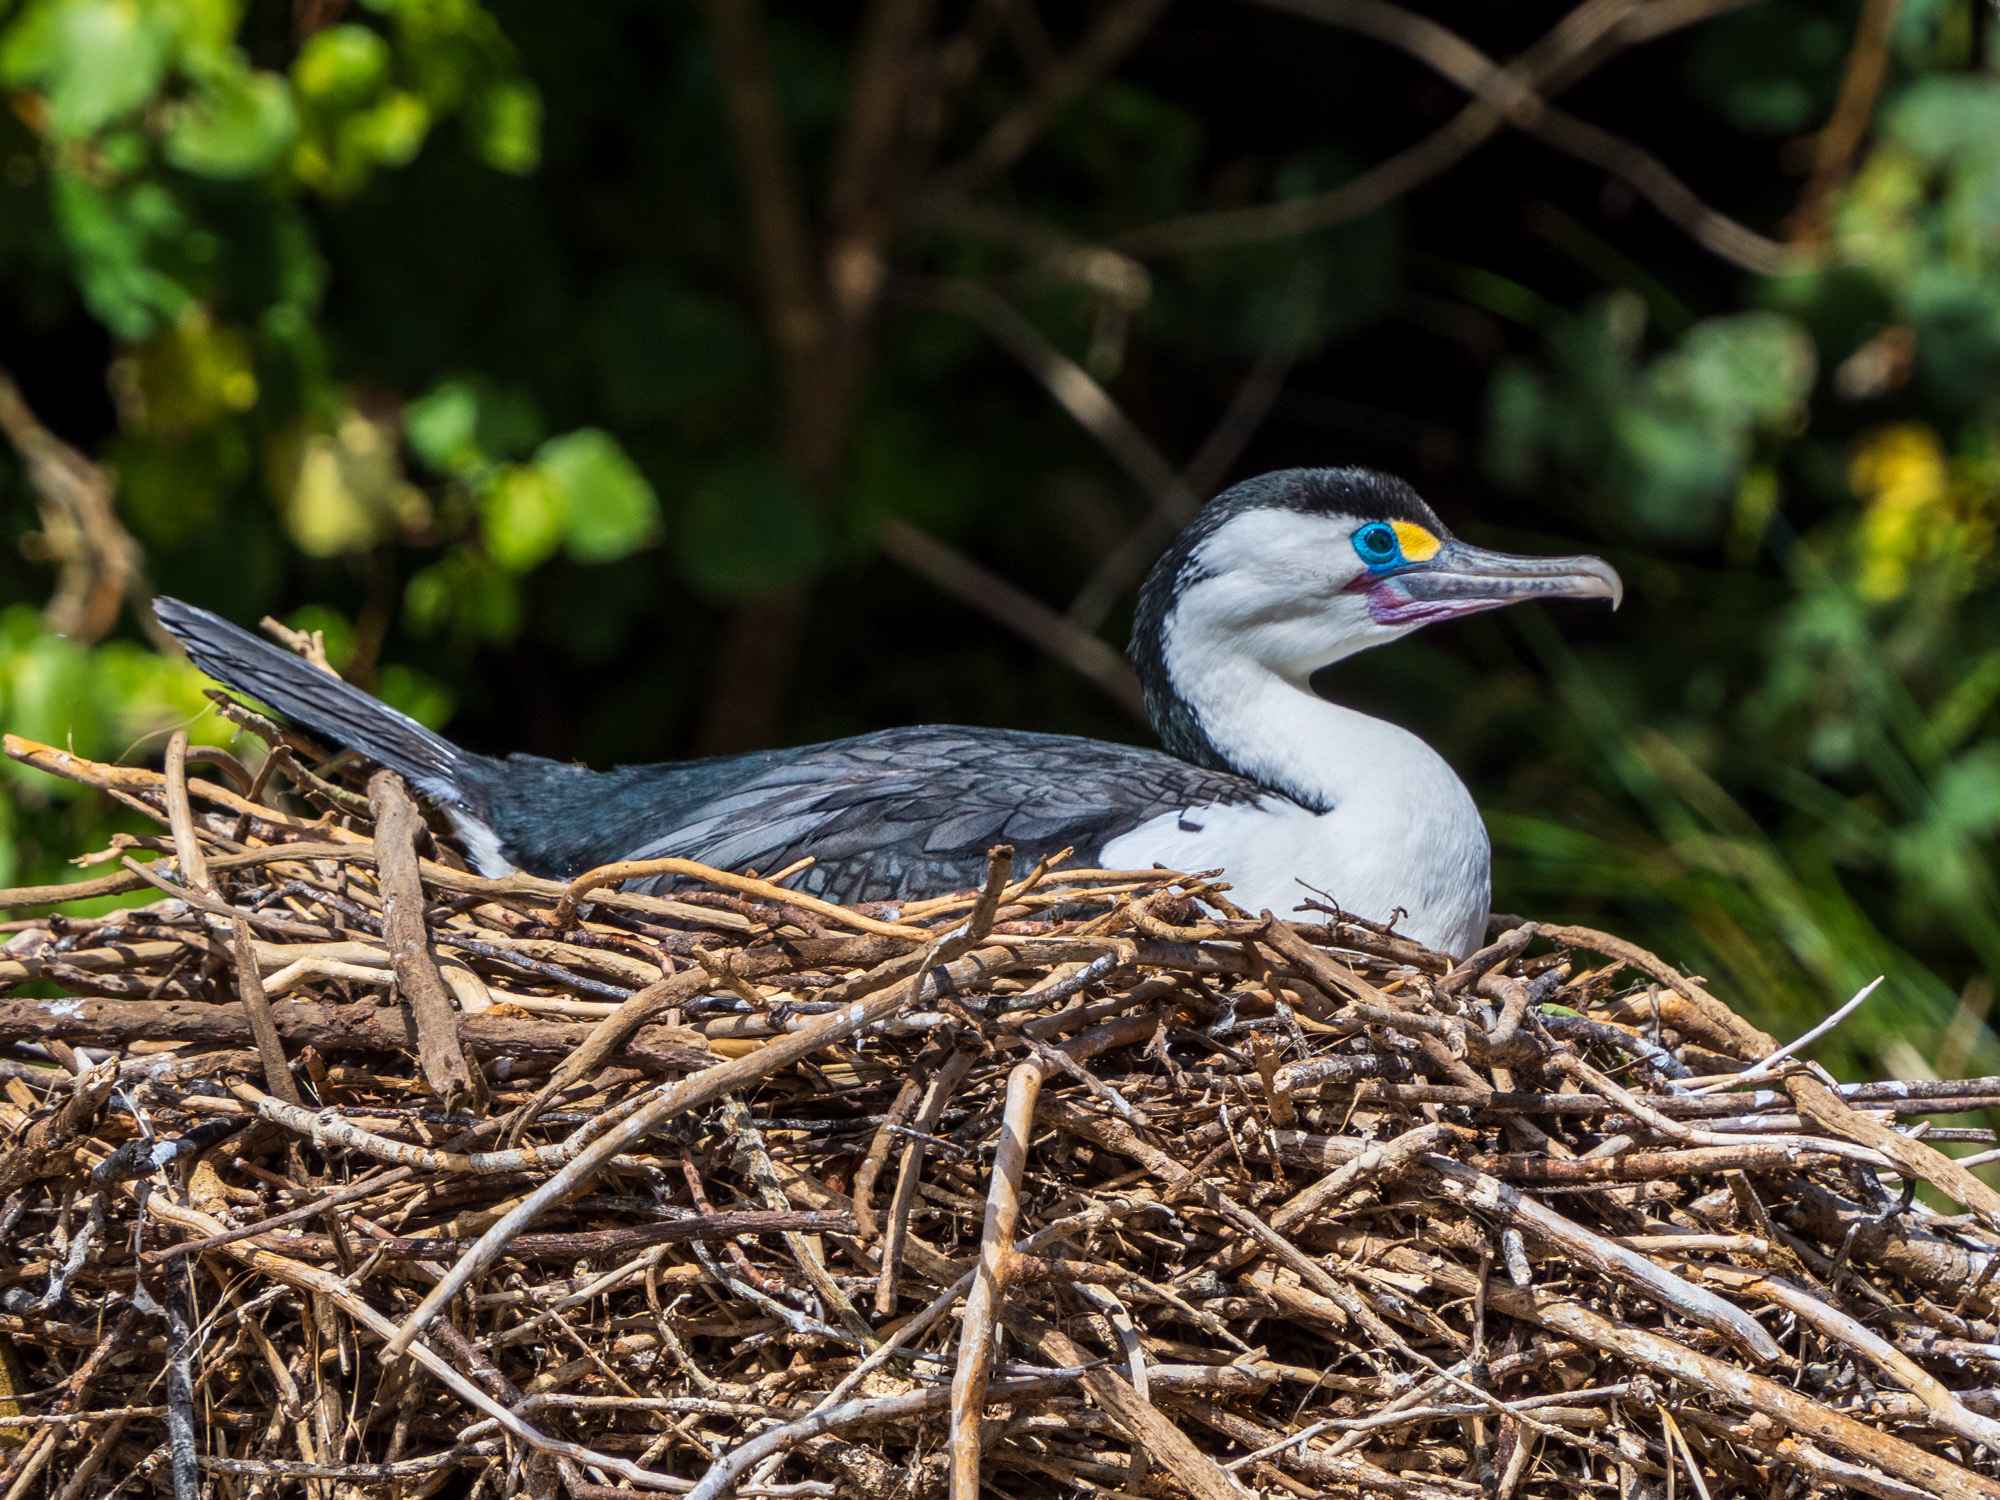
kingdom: Animalia
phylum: Chordata
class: Aves
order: Suliformes
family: Phalacrocoracidae
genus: Phalacrocorax
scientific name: Phalacrocorax varius
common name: Pied cormorant
